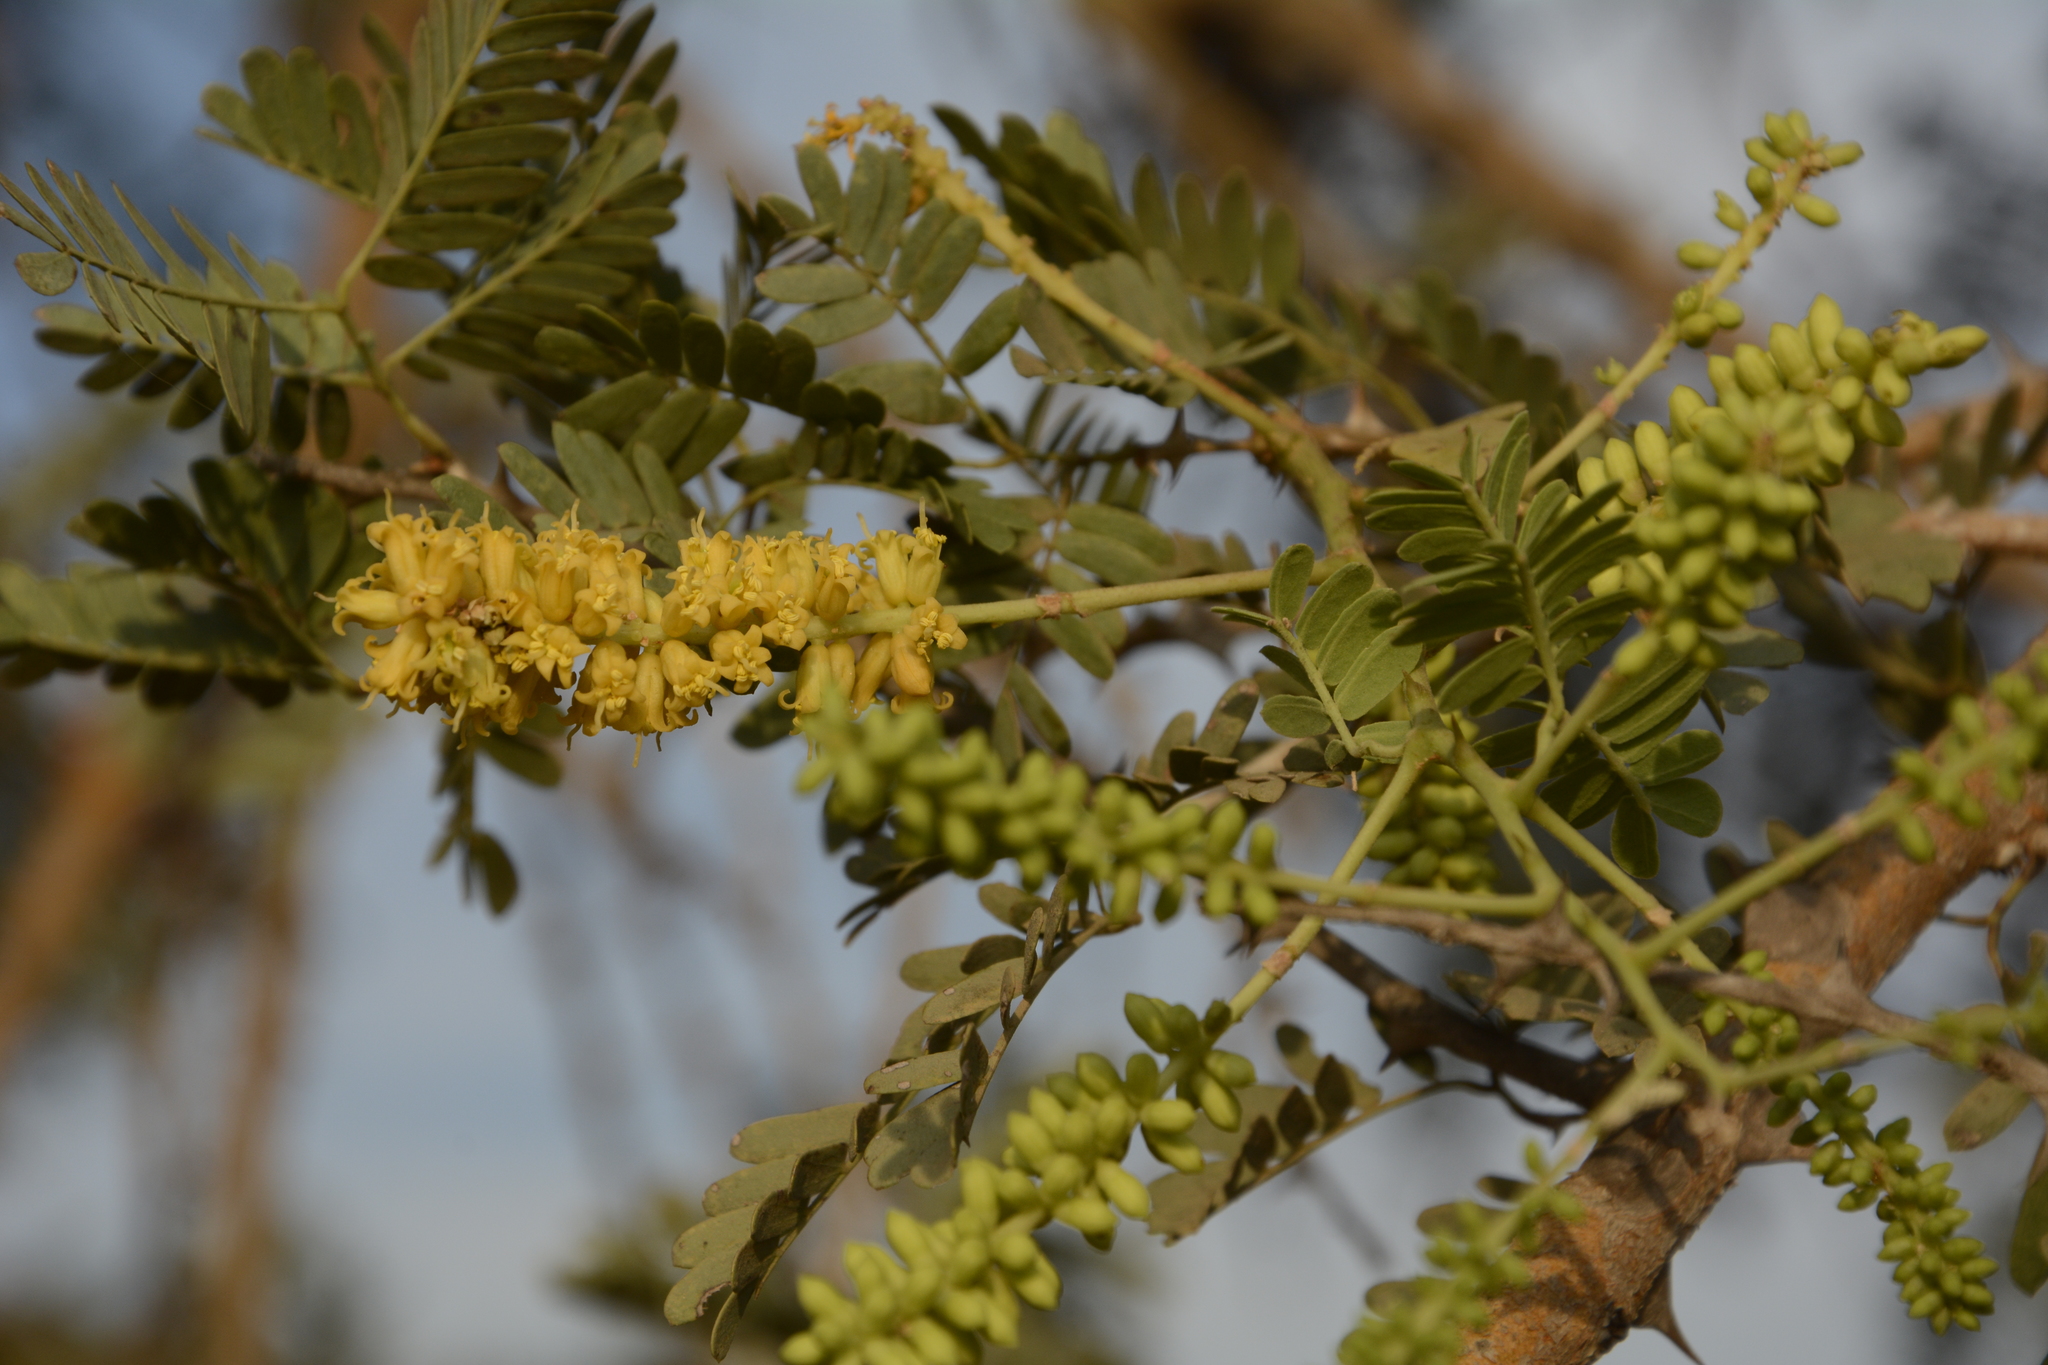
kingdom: Plantae
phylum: Tracheophyta
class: Magnoliopsida
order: Fabales
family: Fabaceae
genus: Prosopis
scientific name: Prosopis cineraria
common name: Jandi
